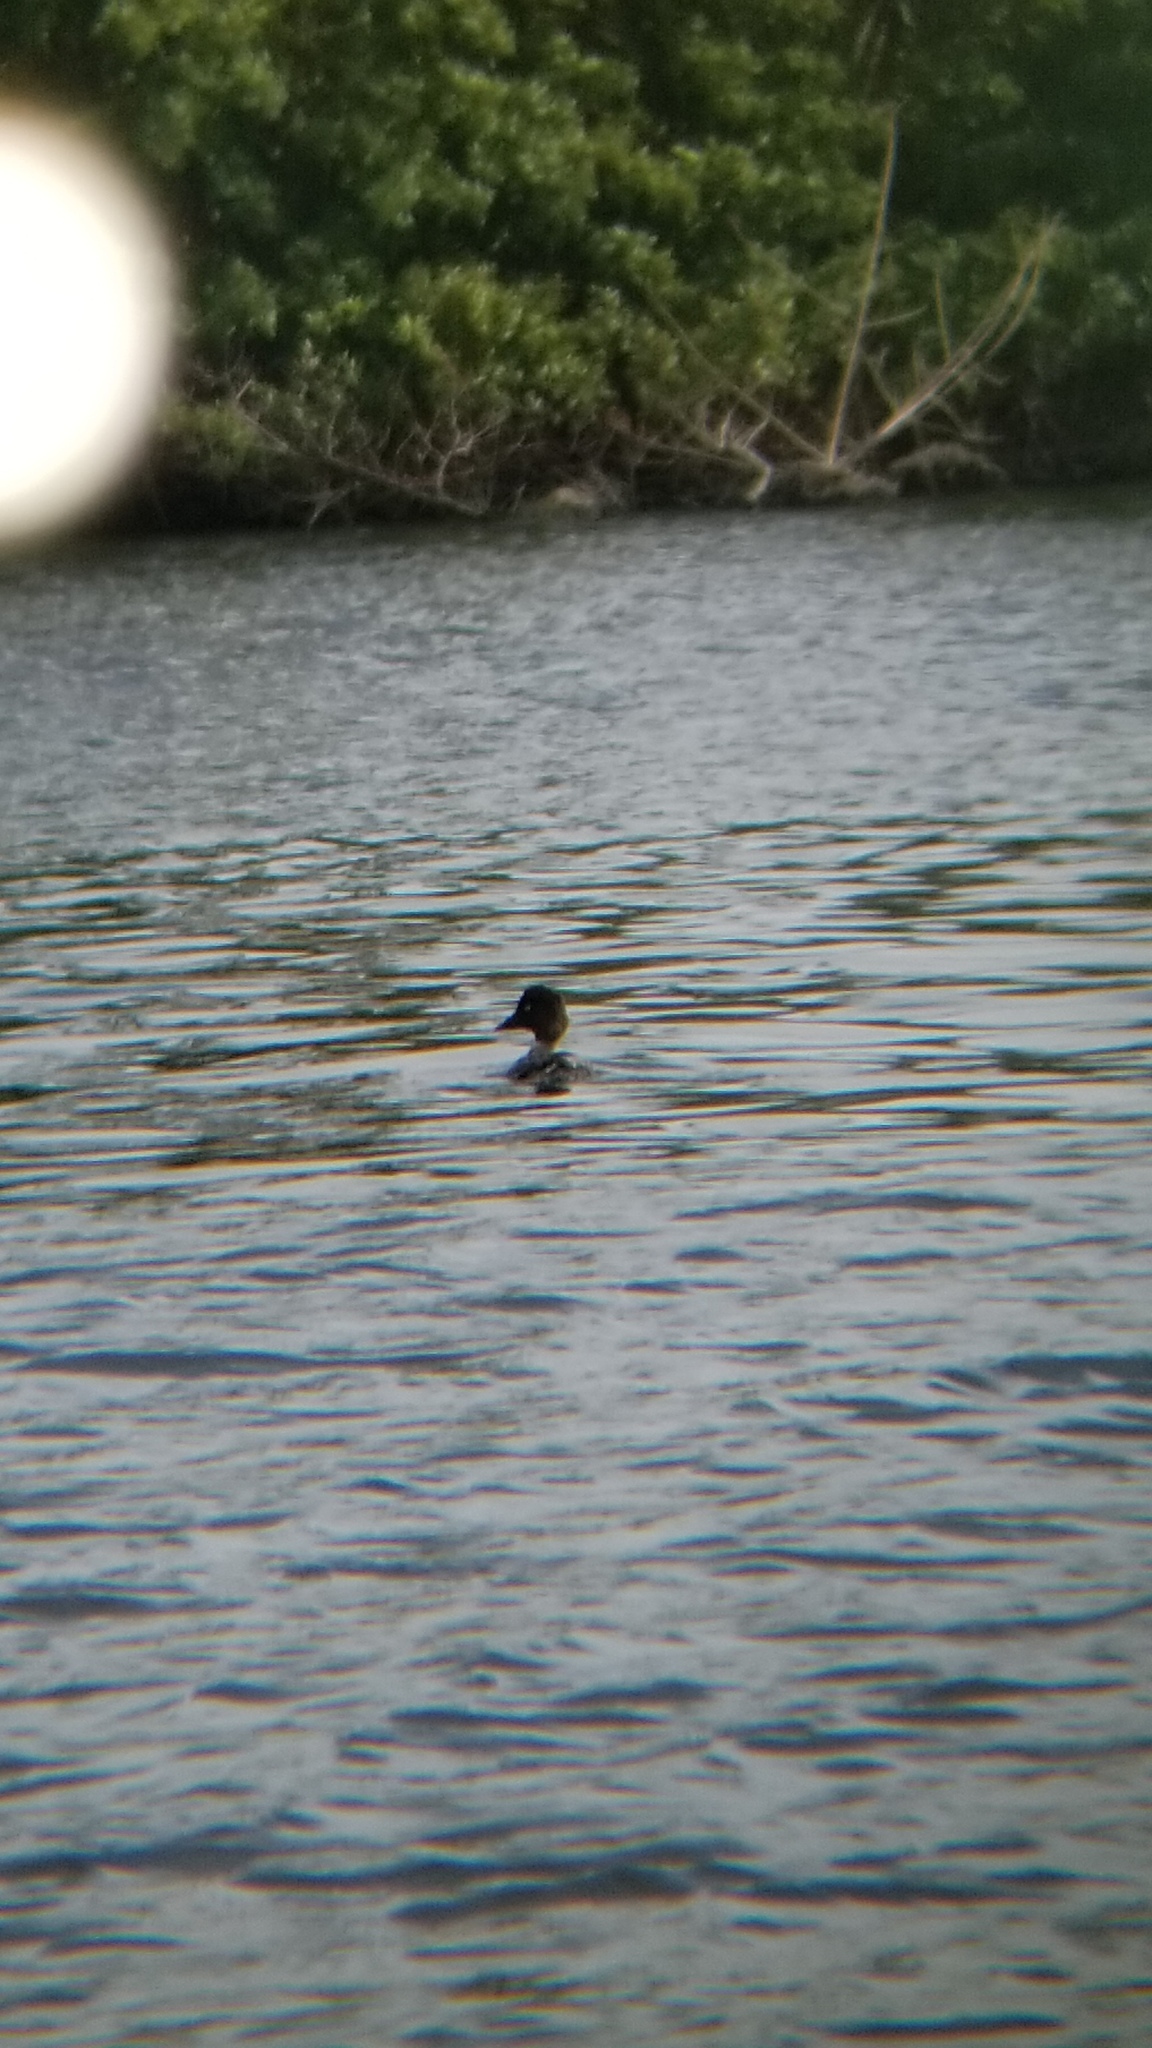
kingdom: Animalia
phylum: Chordata
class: Aves
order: Anseriformes
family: Anatidae
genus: Bucephala
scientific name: Bucephala clangula
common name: Common goldeneye
